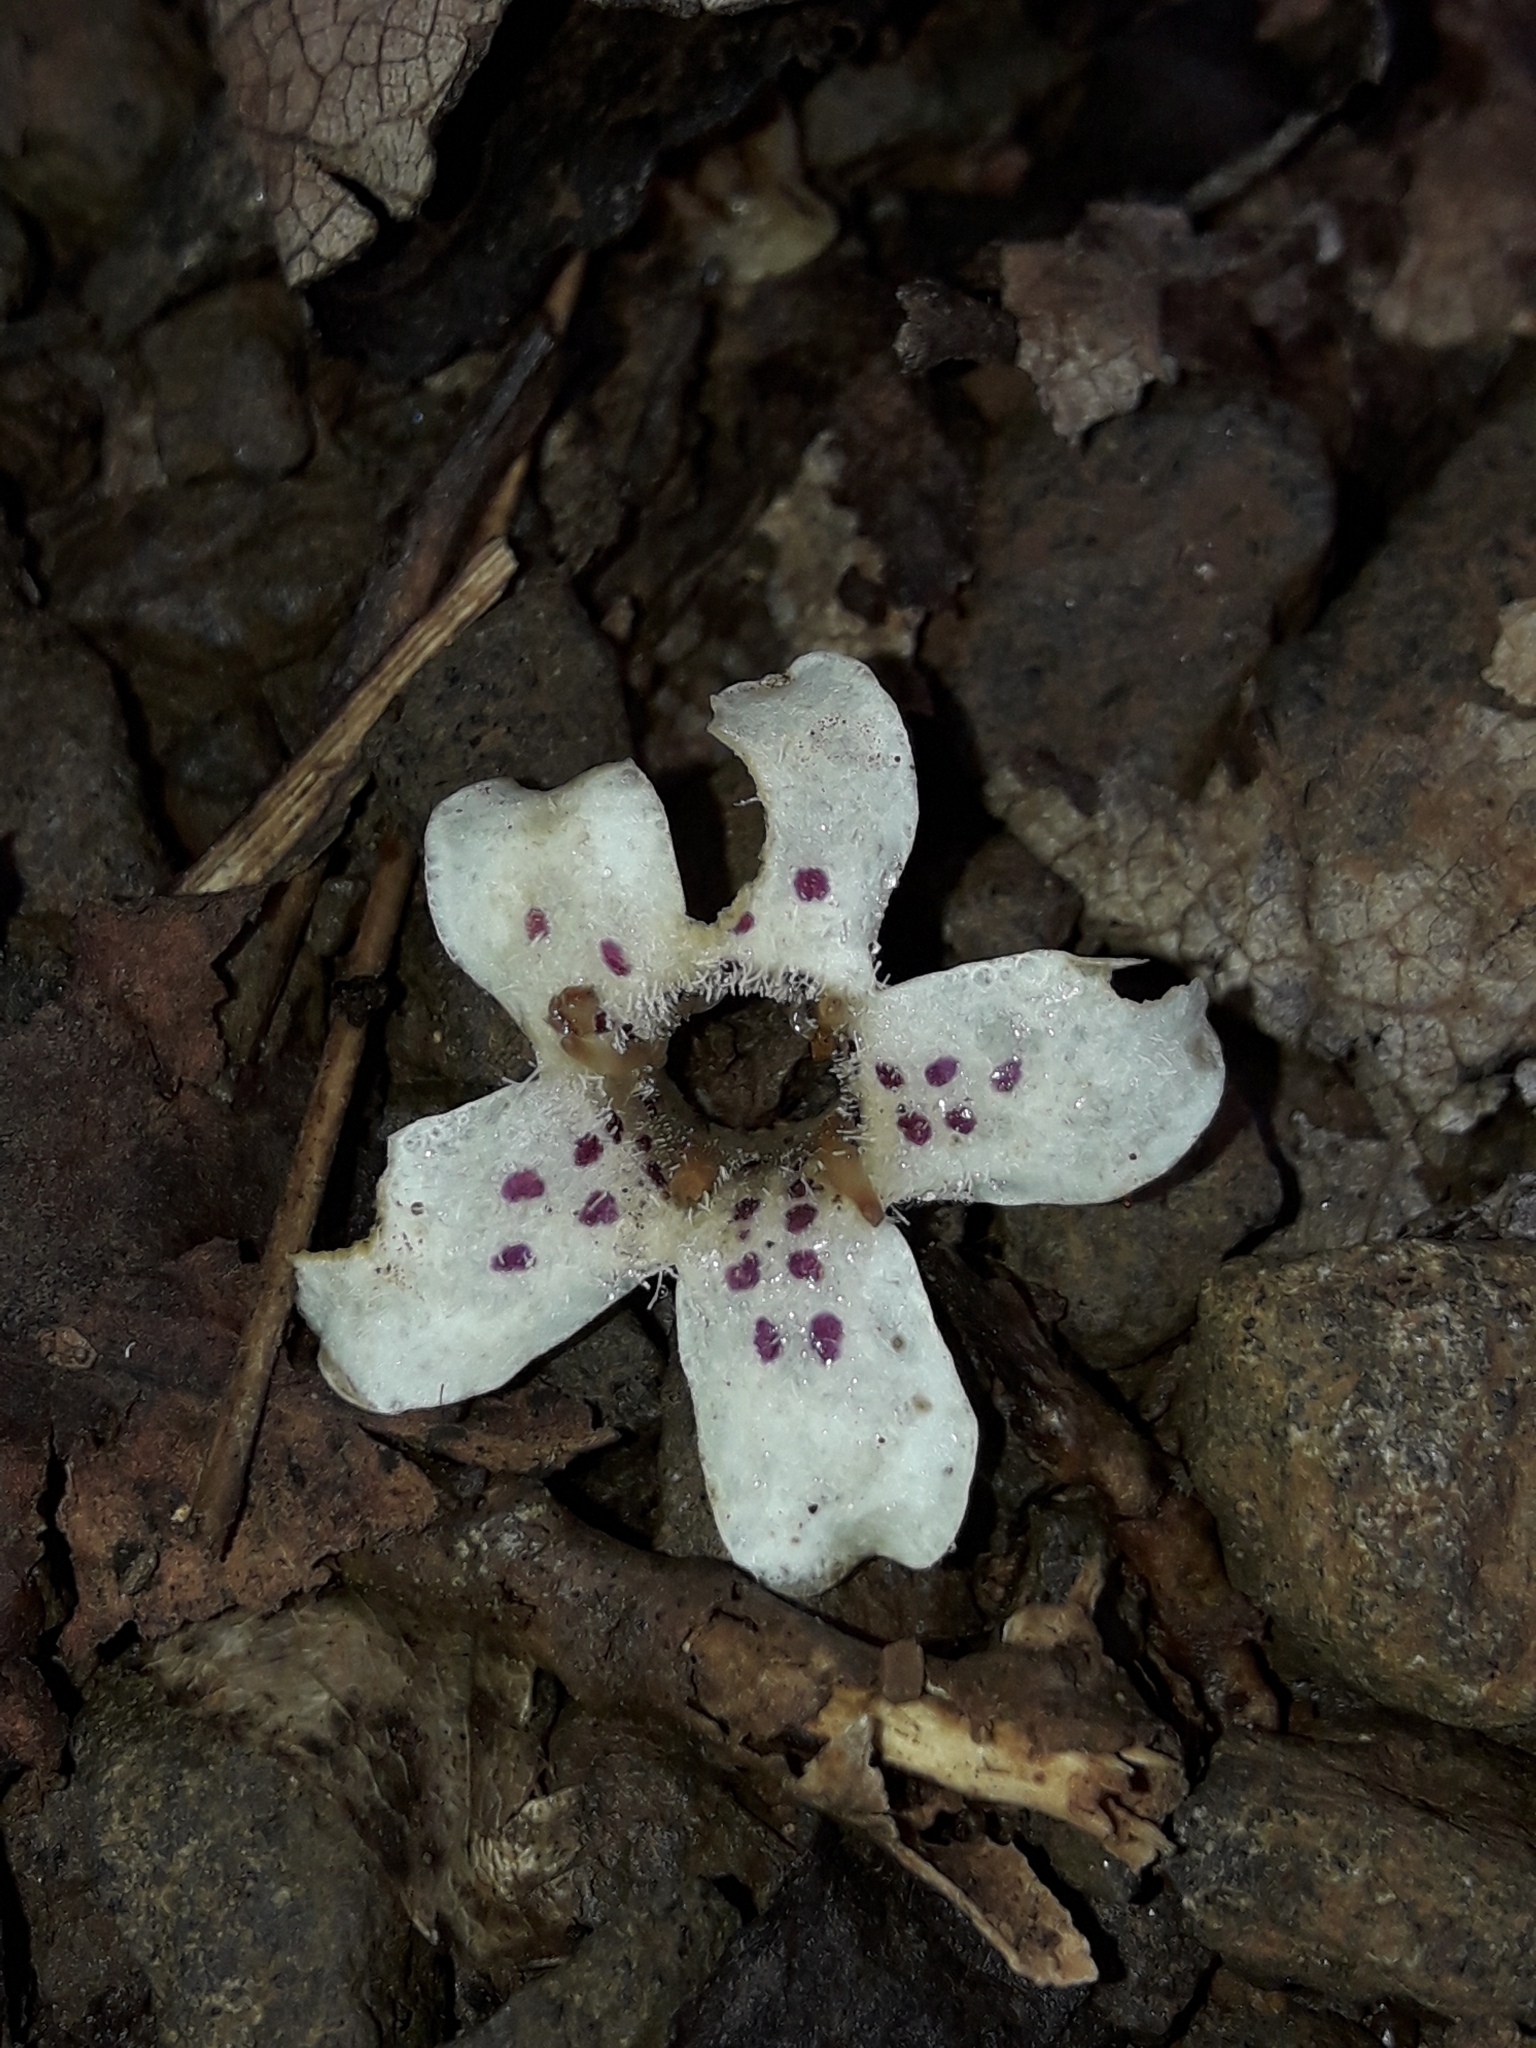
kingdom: Plantae
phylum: Tracheophyta
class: Magnoliopsida
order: Lamiales
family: Scrophulariaceae
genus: Myoporum
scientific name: Myoporum obscurum
